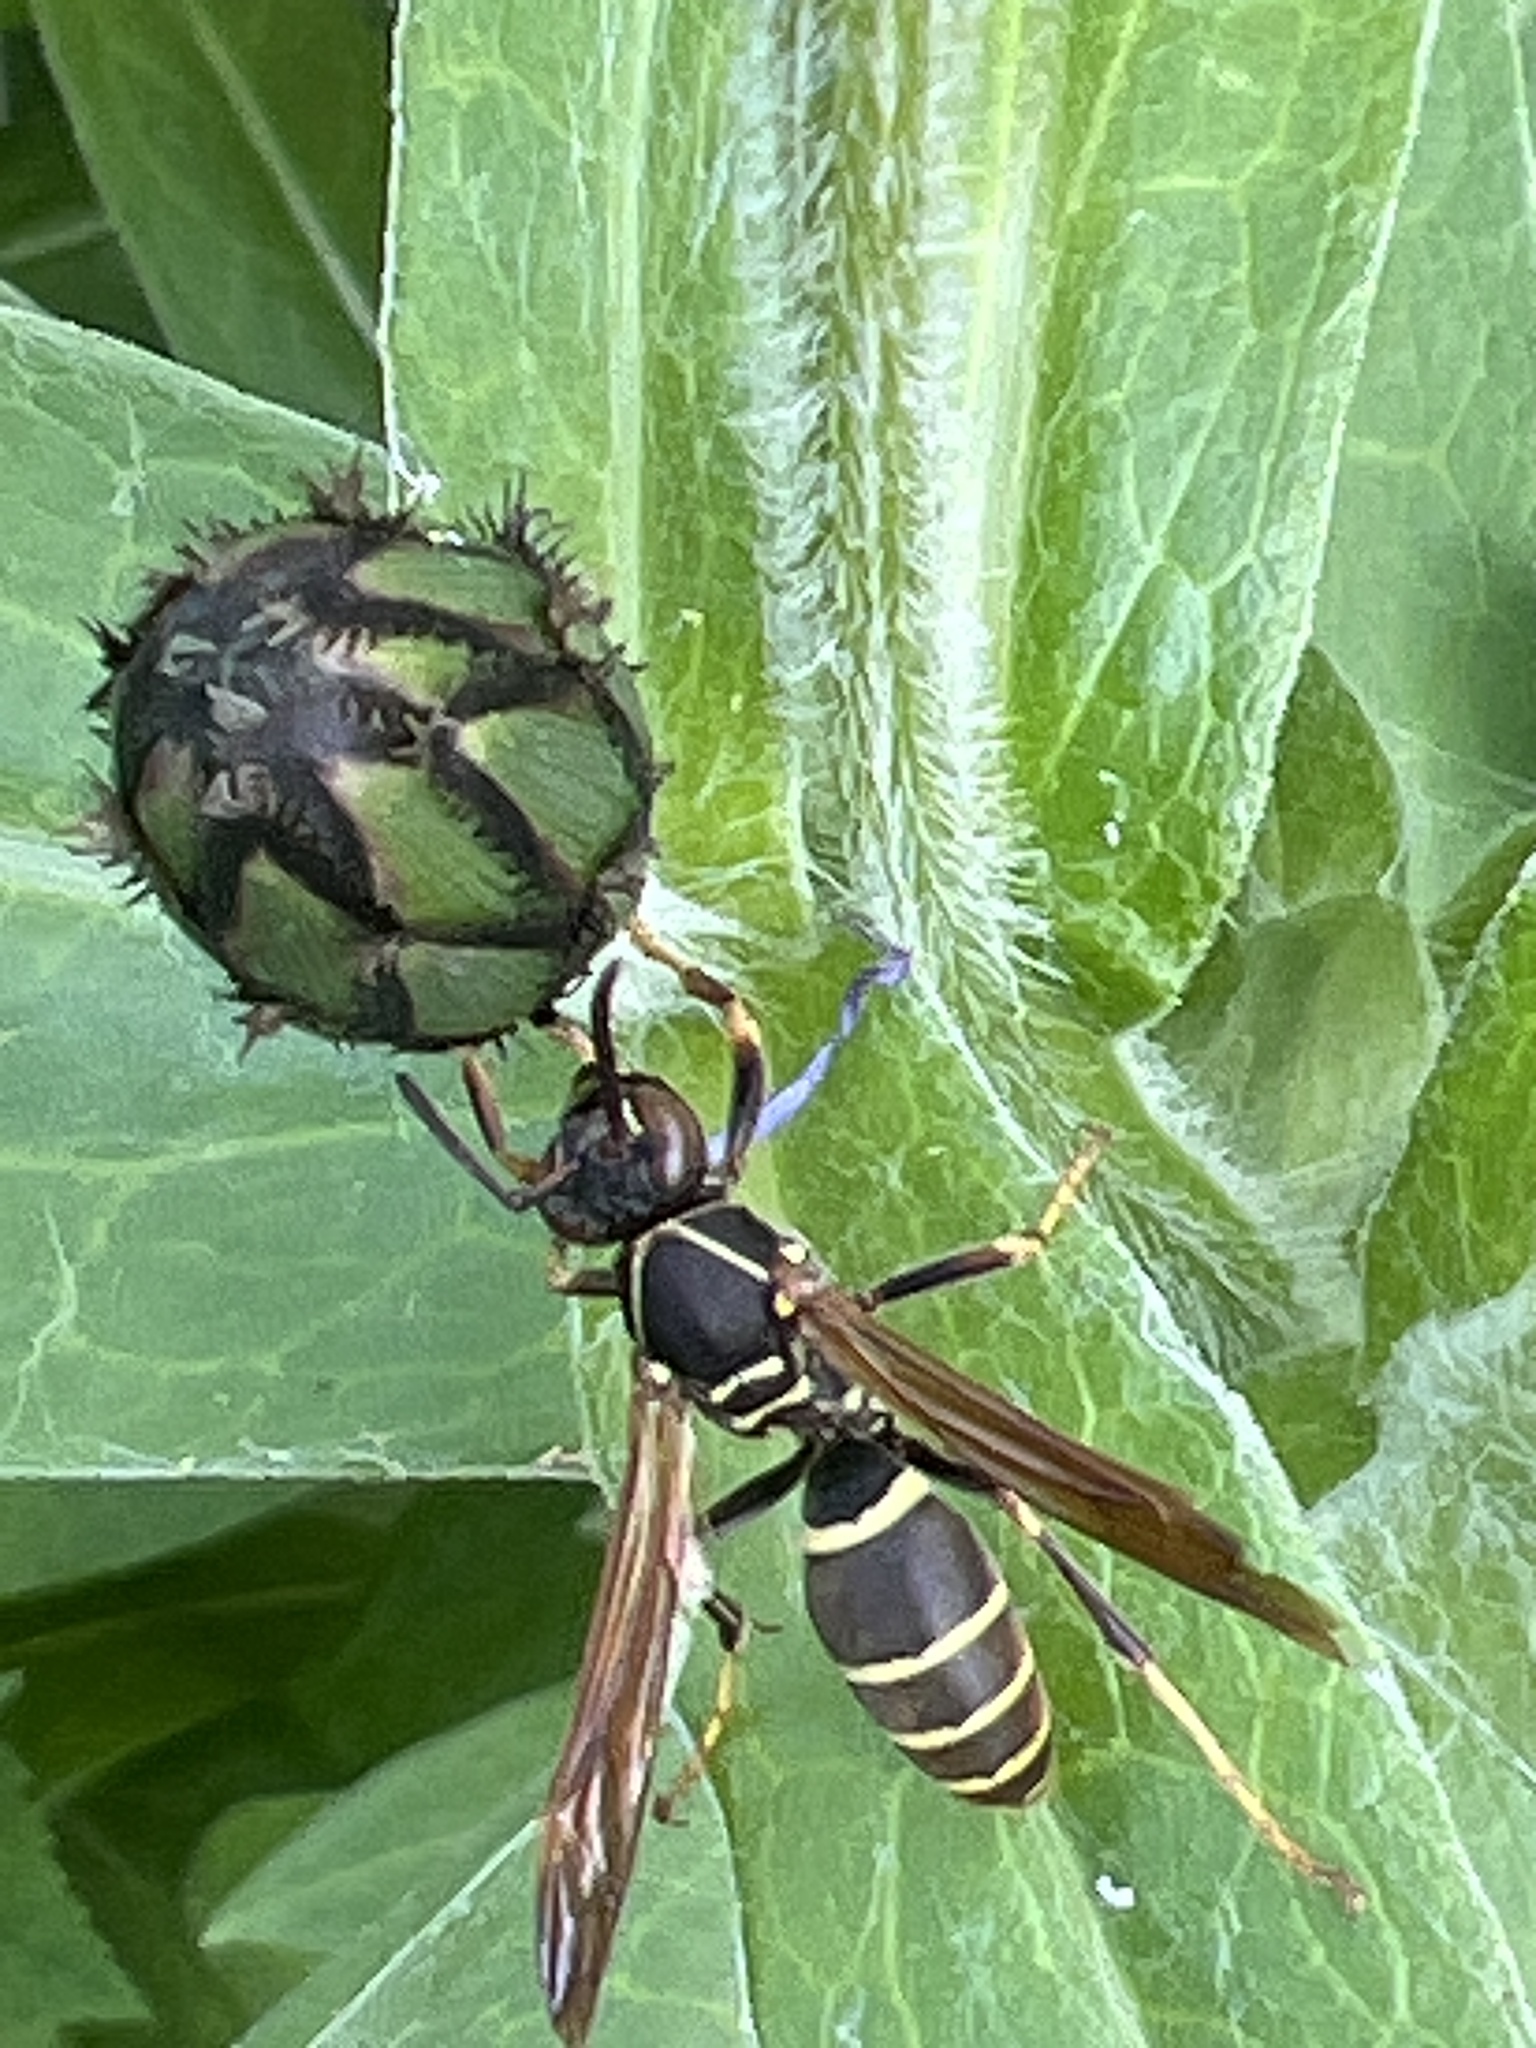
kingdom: Animalia
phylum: Arthropoda
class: Insecta
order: Hymenoptera
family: Eumenidae
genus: Polistes
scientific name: Polistes fuscatus
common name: Dark paper wasp
